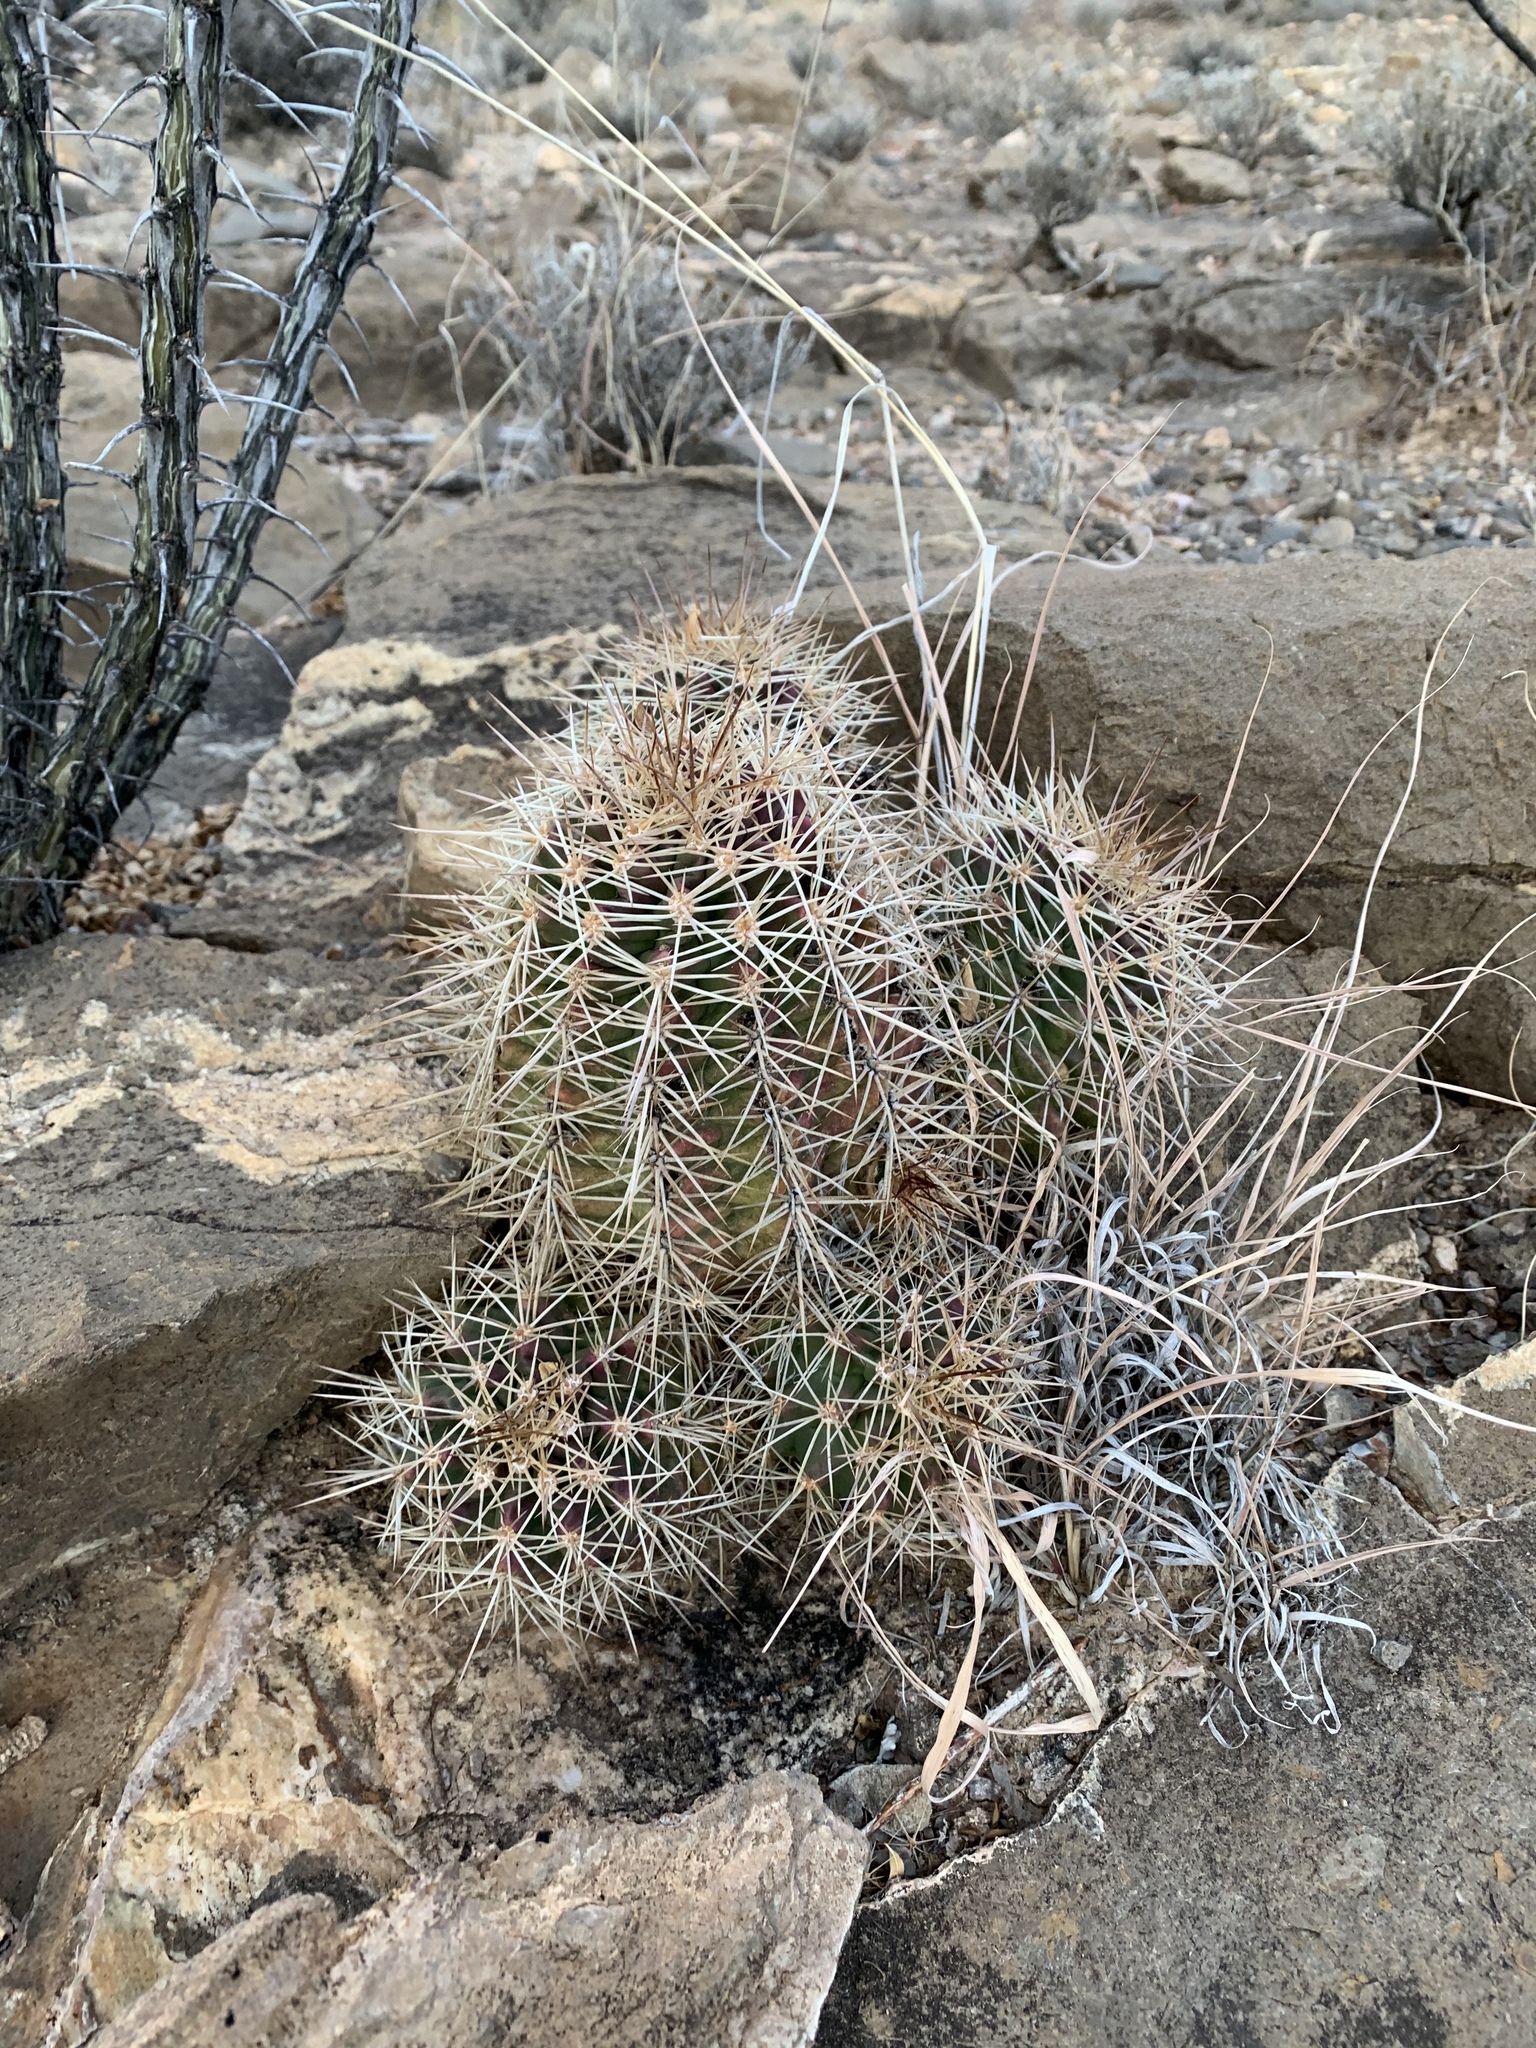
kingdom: Plantae
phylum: Tracheophyta
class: Magnoliopsida
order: Caryophyllales
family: Cactaceae
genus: Echinocereus
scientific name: Echinocereus coccineus
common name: Scarlet hedgehog cactus
